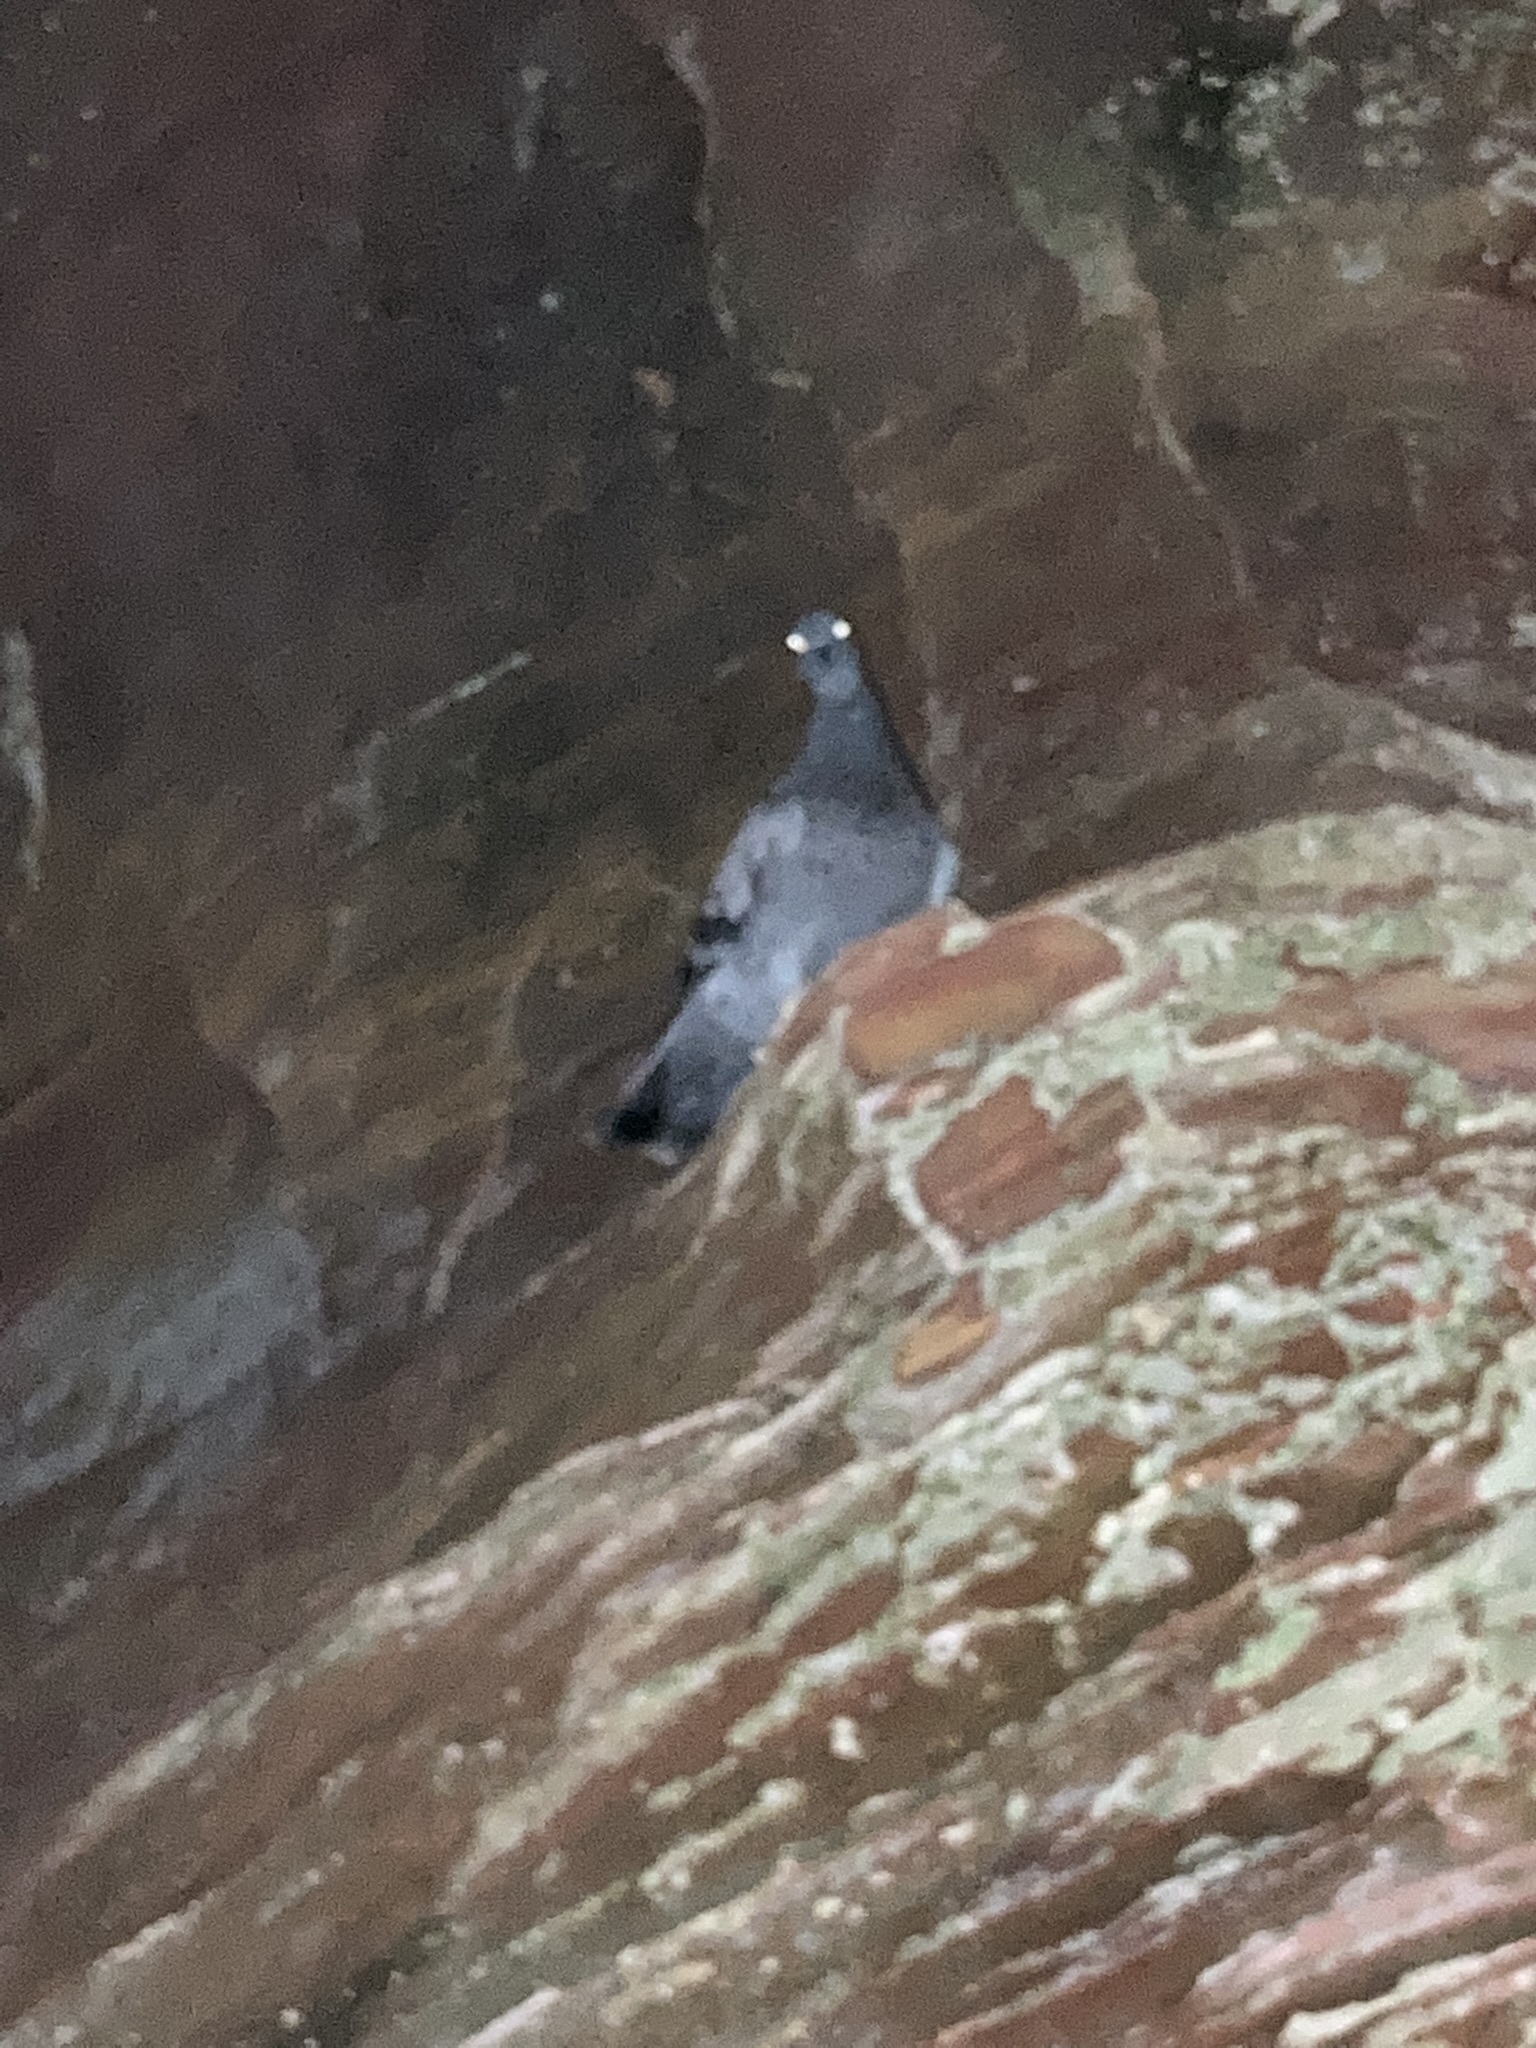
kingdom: Animalia
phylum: Chordata
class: Aves
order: Columbiformes
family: Columbidae
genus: Columba
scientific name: Columba livia
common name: Rock pigeon
